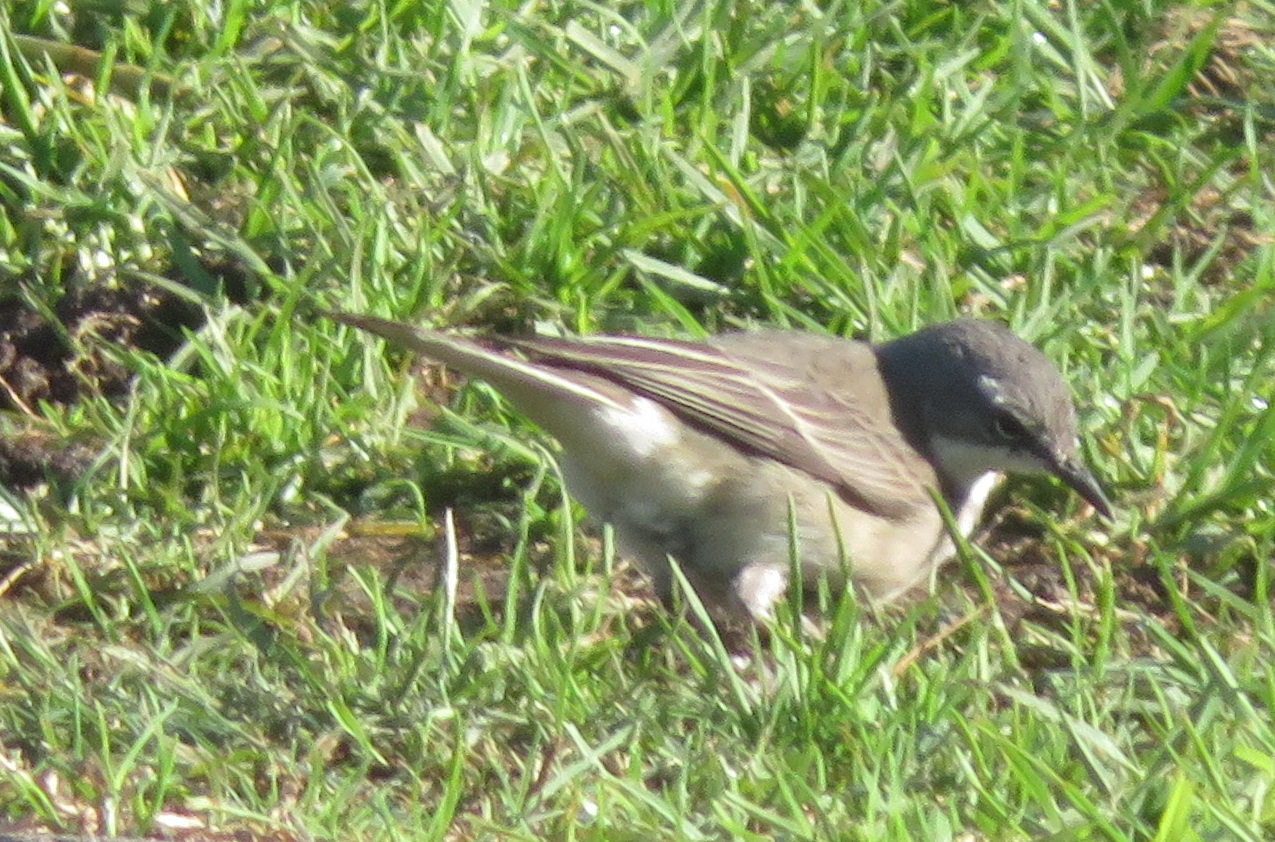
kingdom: Animalia
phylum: Chordata
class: Aves
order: Passeriformes
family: Motacillidae
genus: Motacilla
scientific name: Motacilla capensis
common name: Cape wagtail
